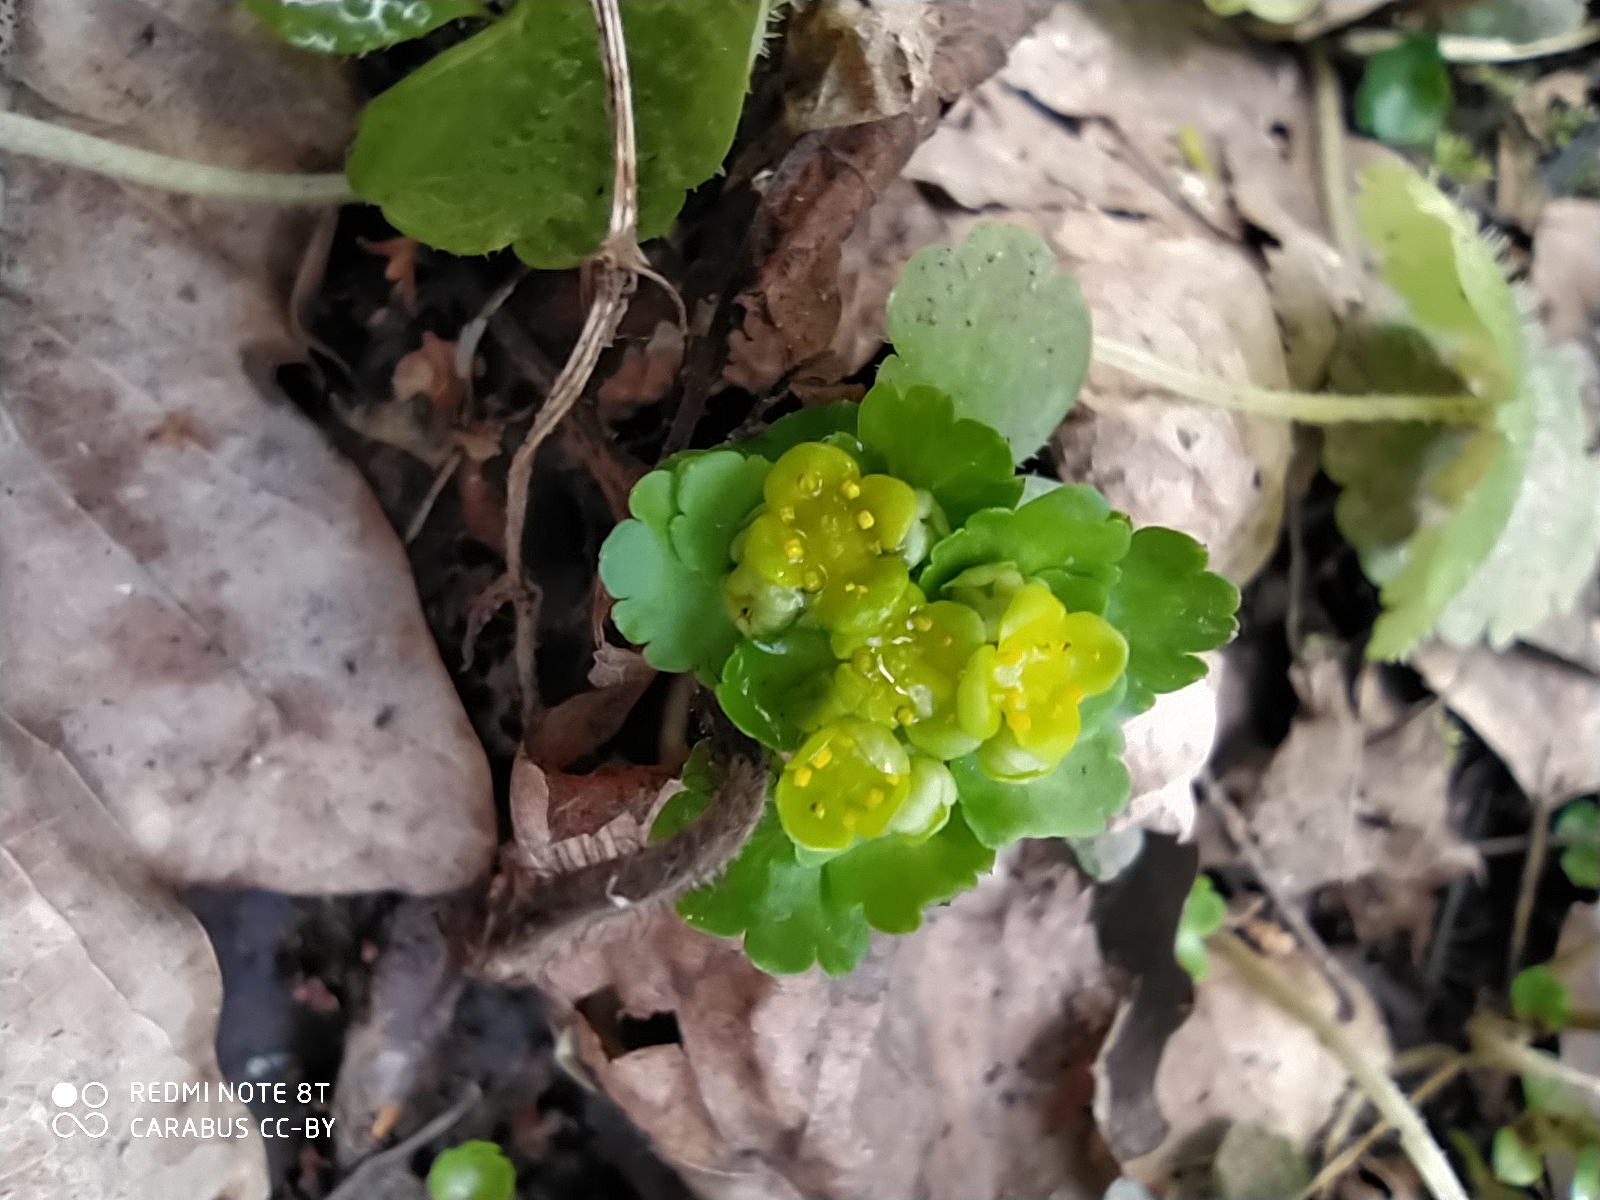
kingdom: Plantae
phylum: Tracheophyta
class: Magnoliopsida
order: Saxifragales
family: Saxifragaceae
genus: Chrysosplenium
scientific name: Chrysosplenium alternifolium
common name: Alternate-leaved golden-saxifrage
